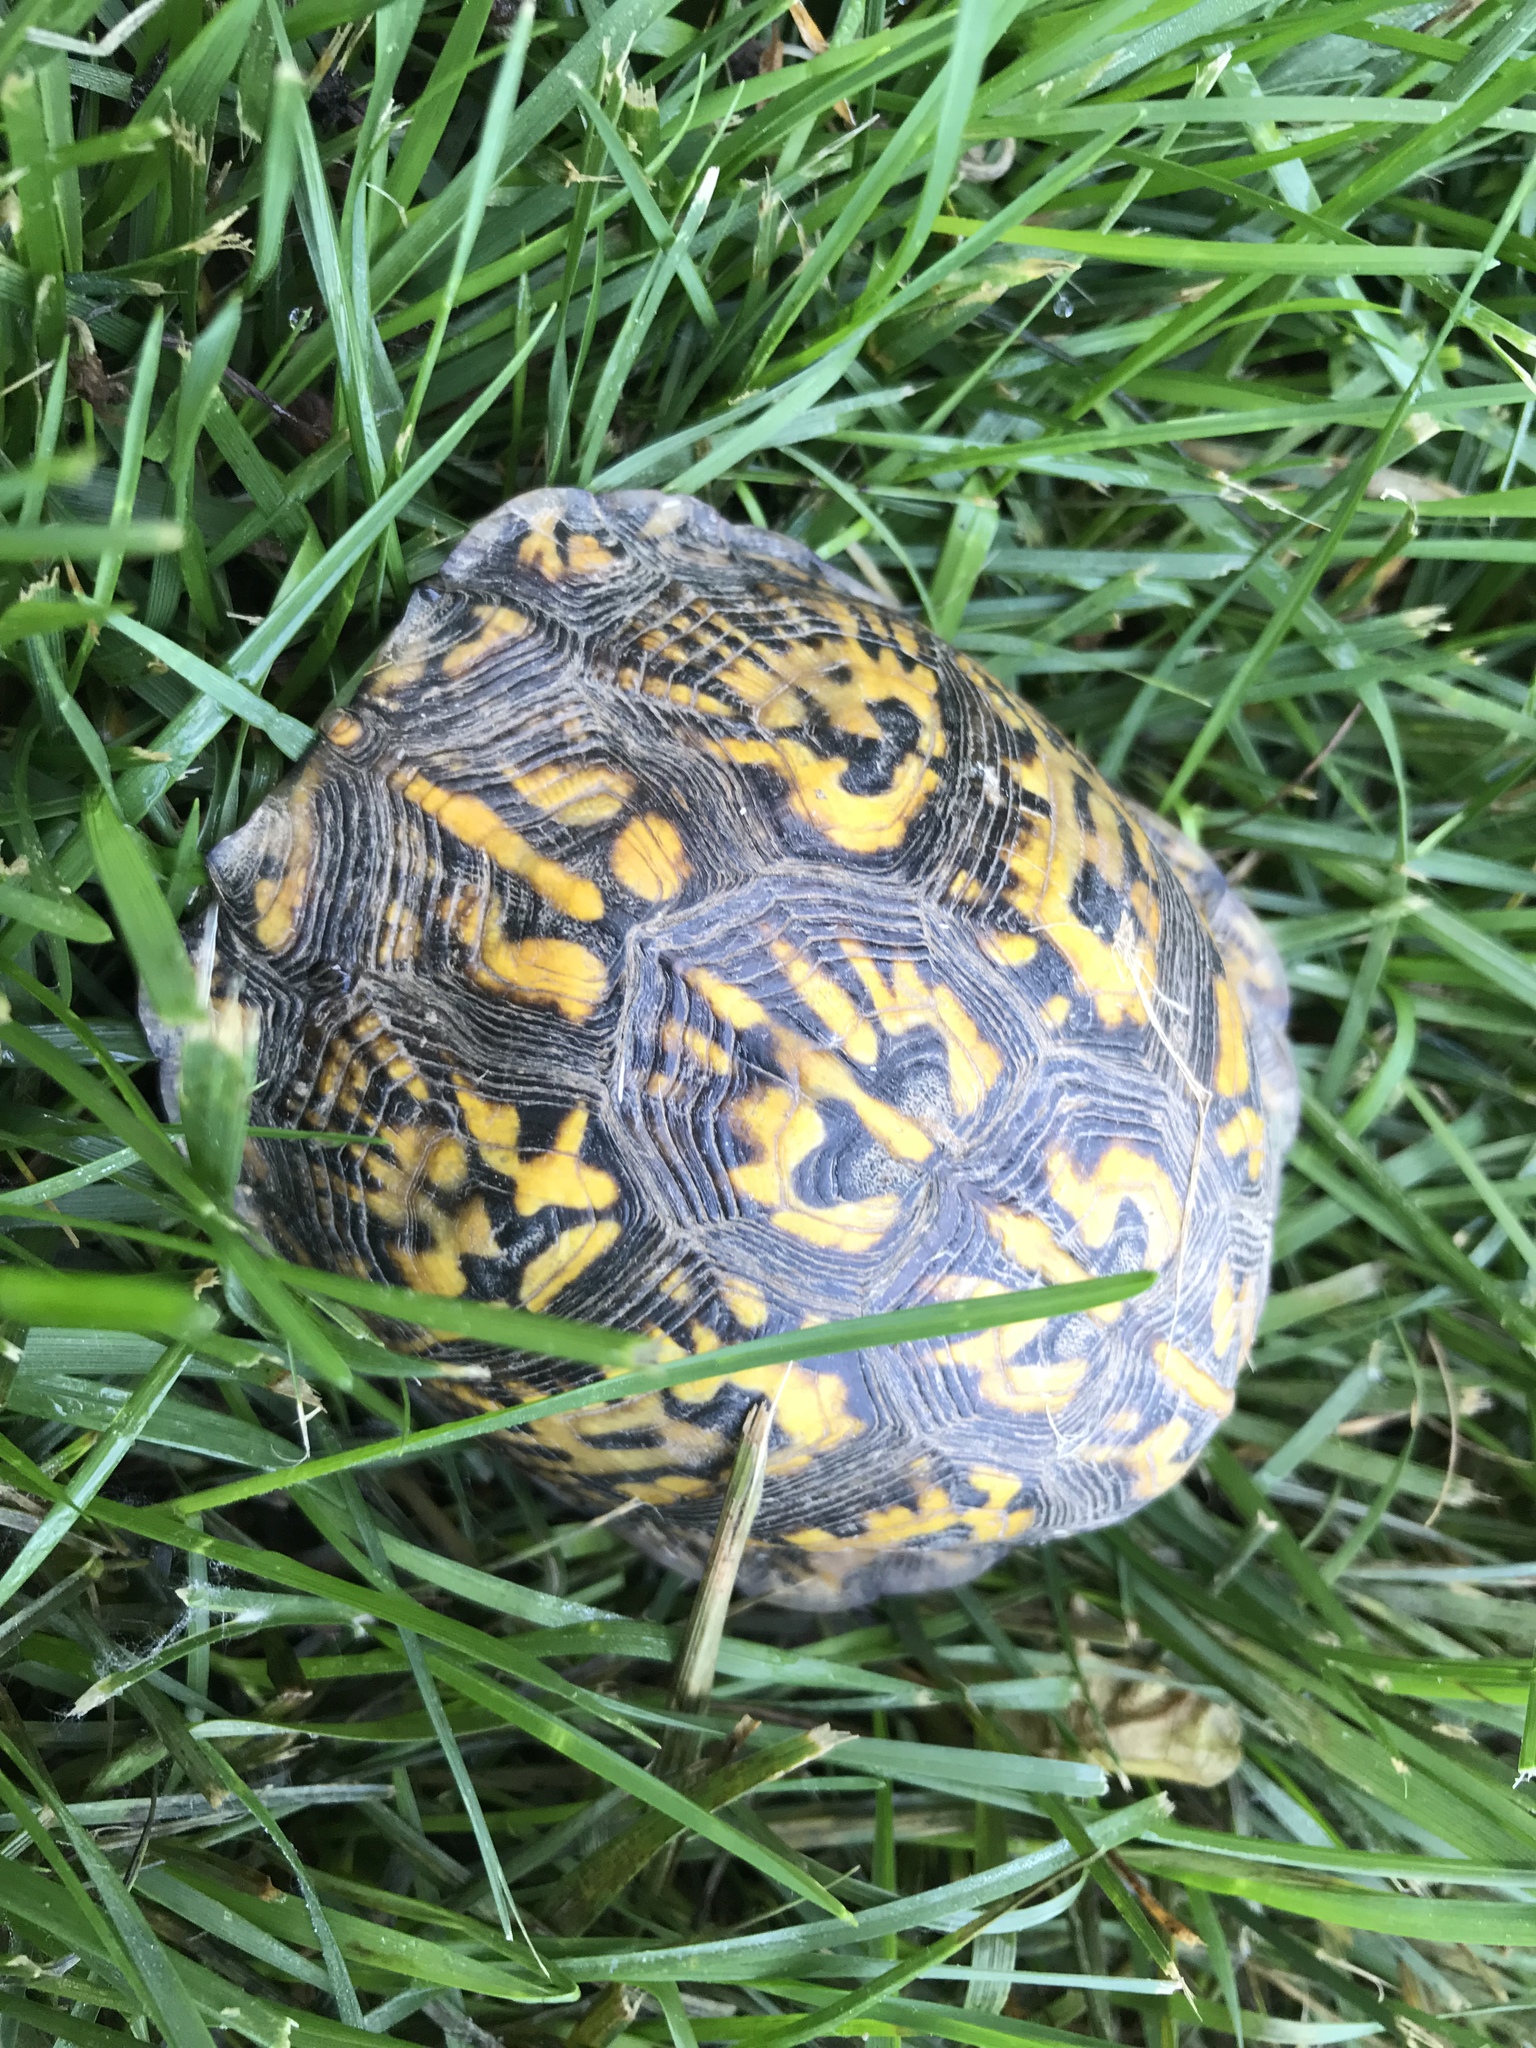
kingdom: Animalia
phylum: Chordata
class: Testudines
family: Emydidae
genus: Terrapene
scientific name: Terrapene carolina
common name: Common box turtle
